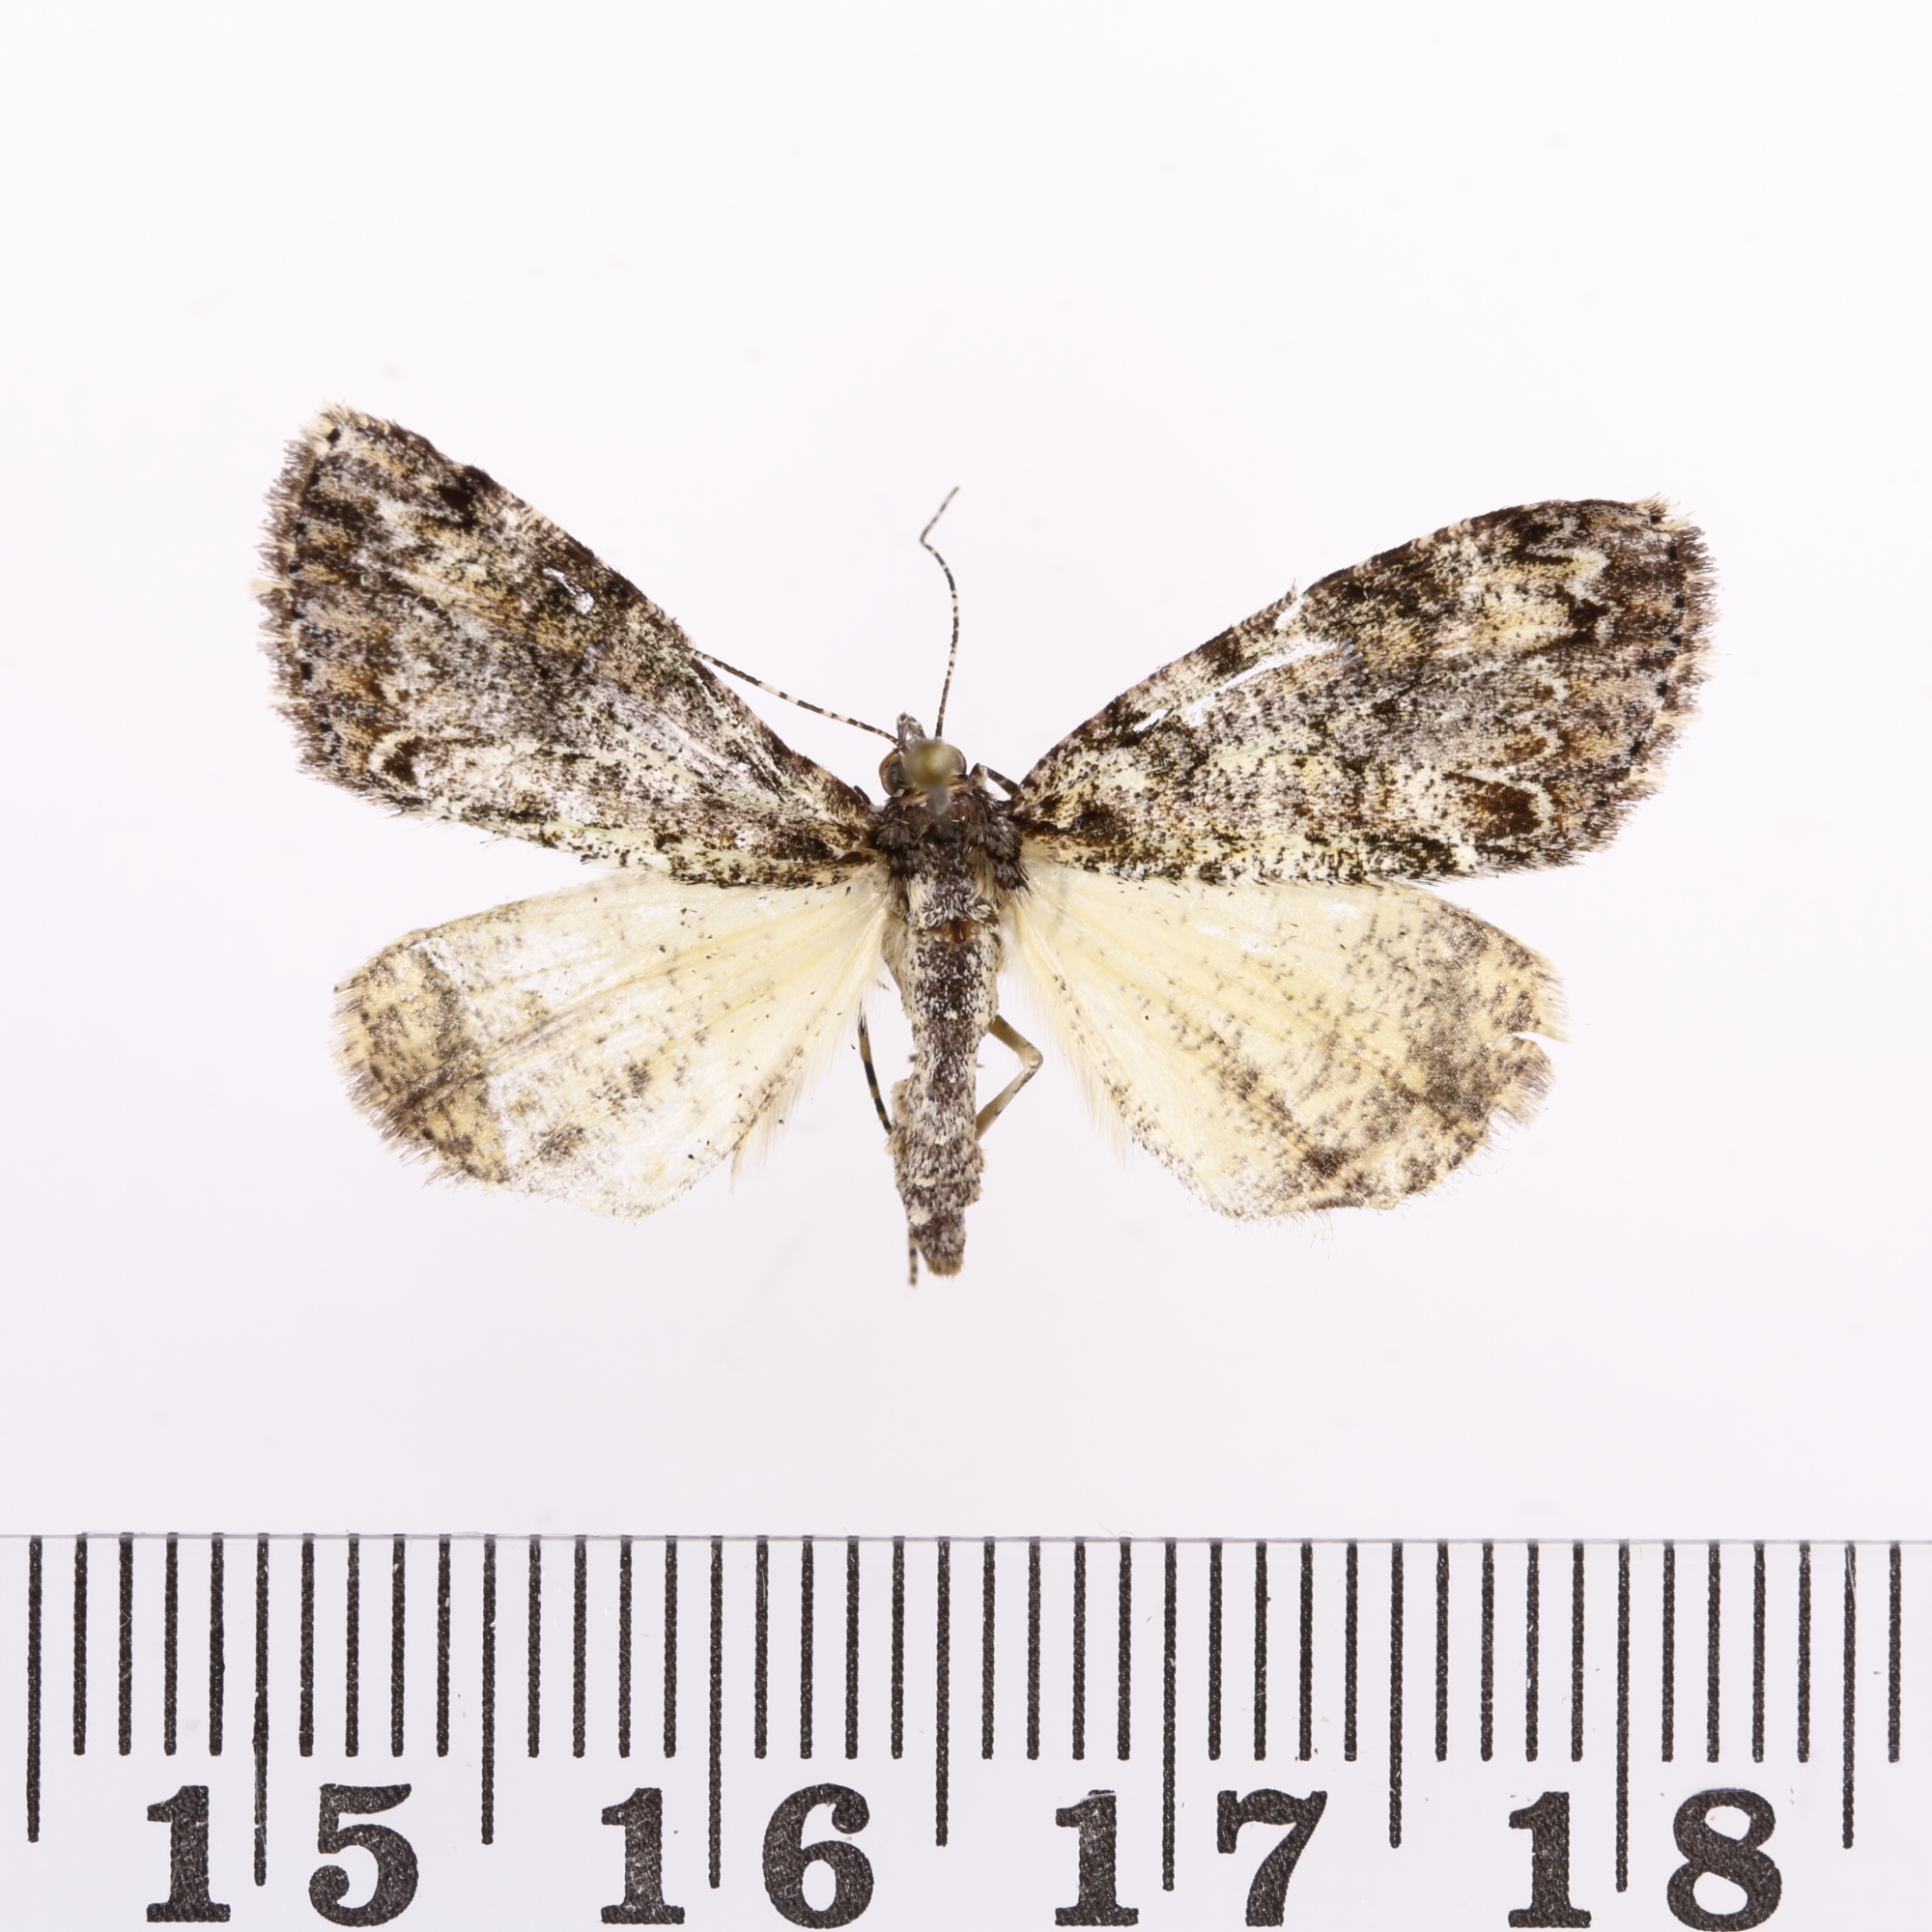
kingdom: Animalia
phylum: Arthropoda
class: Insecta
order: Lepidoptera
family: Geometridae
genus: Pseudocoremia
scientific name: Pseudocoremia suavis
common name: Common forest looper
